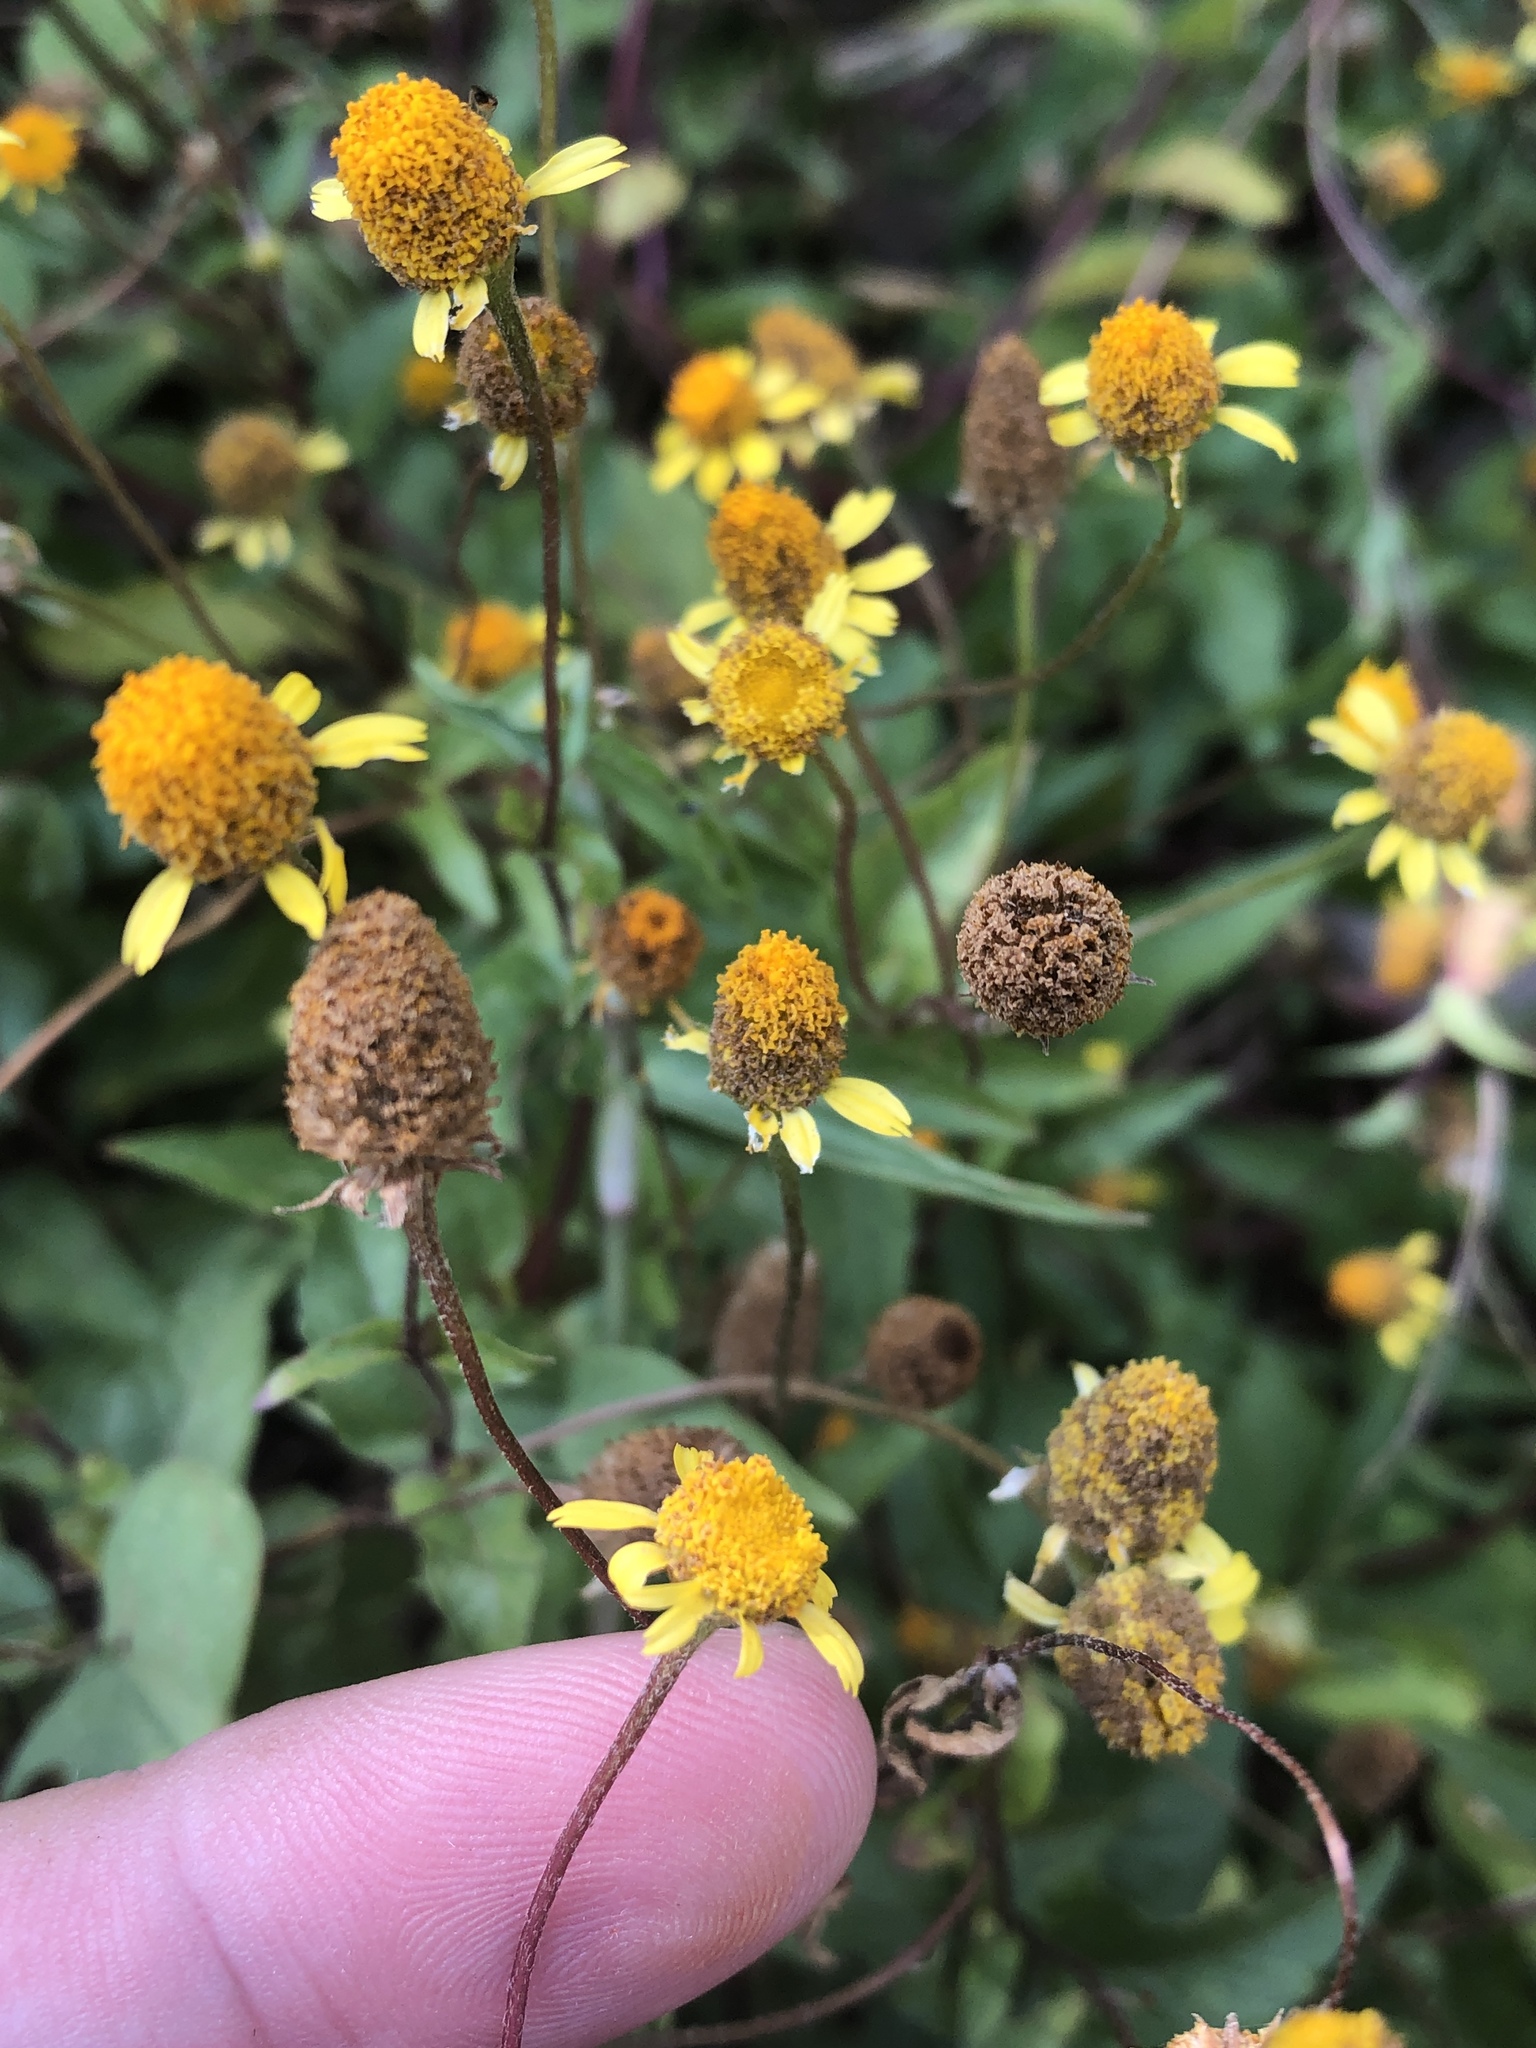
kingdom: Plantae
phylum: Tracheophyta
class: Magnoliopsida
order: Asterales
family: Asteraceae
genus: Acmella
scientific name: Acmella repens
